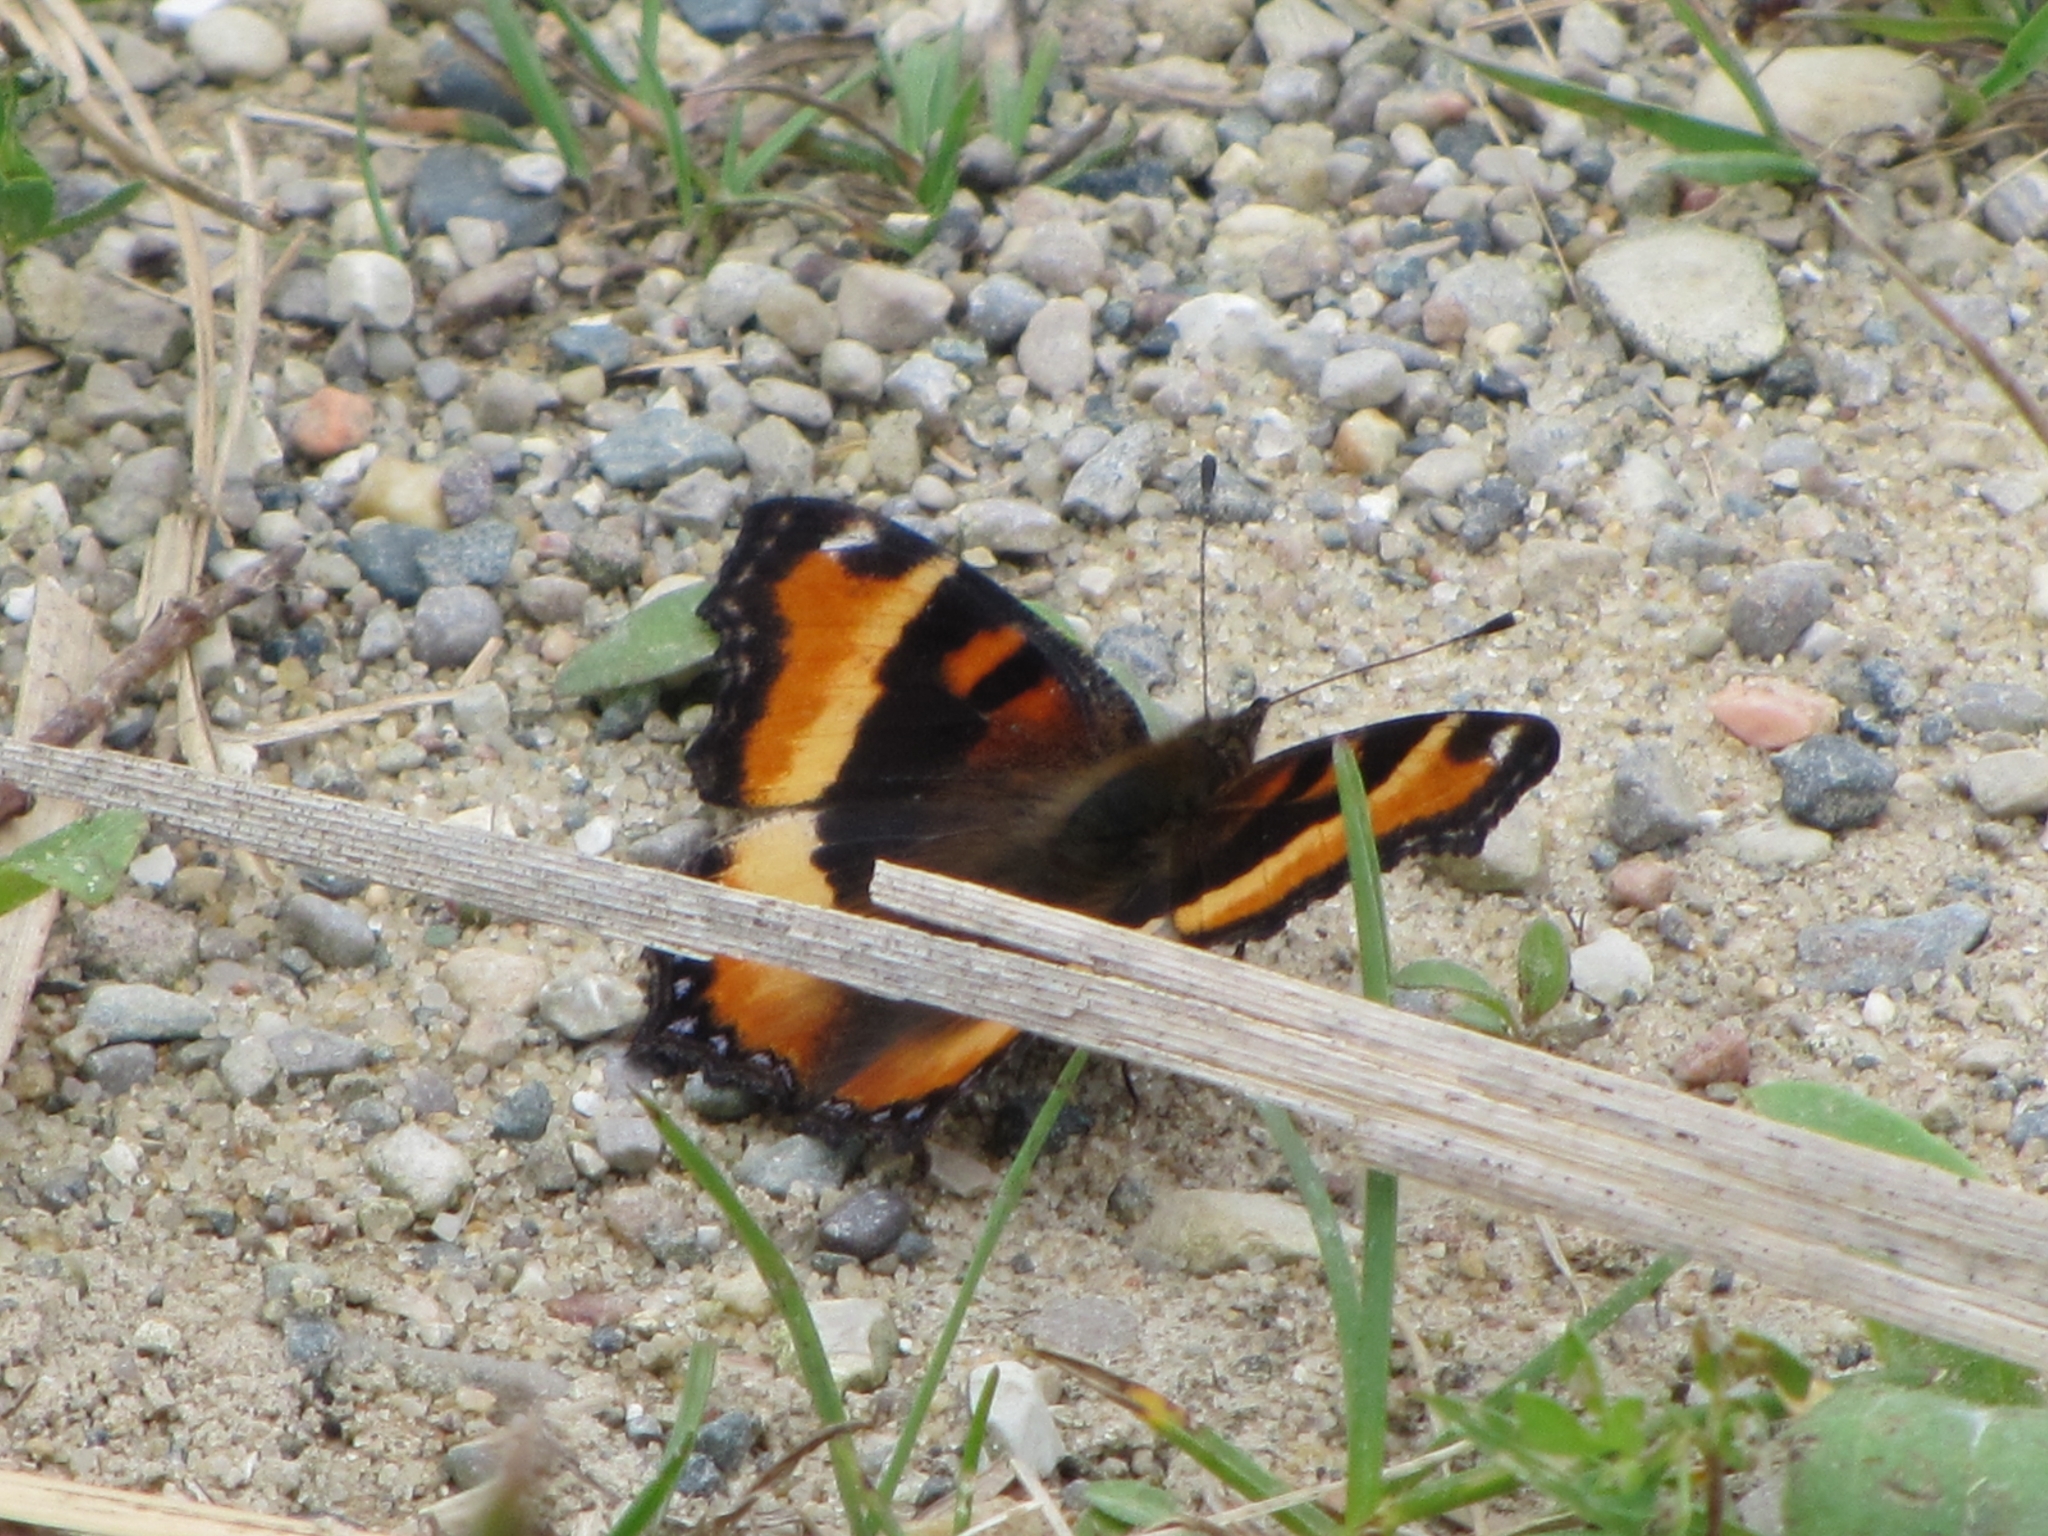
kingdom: Animalia
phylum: Arthropoda
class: Insecta
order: Lepidoptera
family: Nymphalidae
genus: Aglais
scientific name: Aglais milberti
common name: Milbert's tortoiseshell
